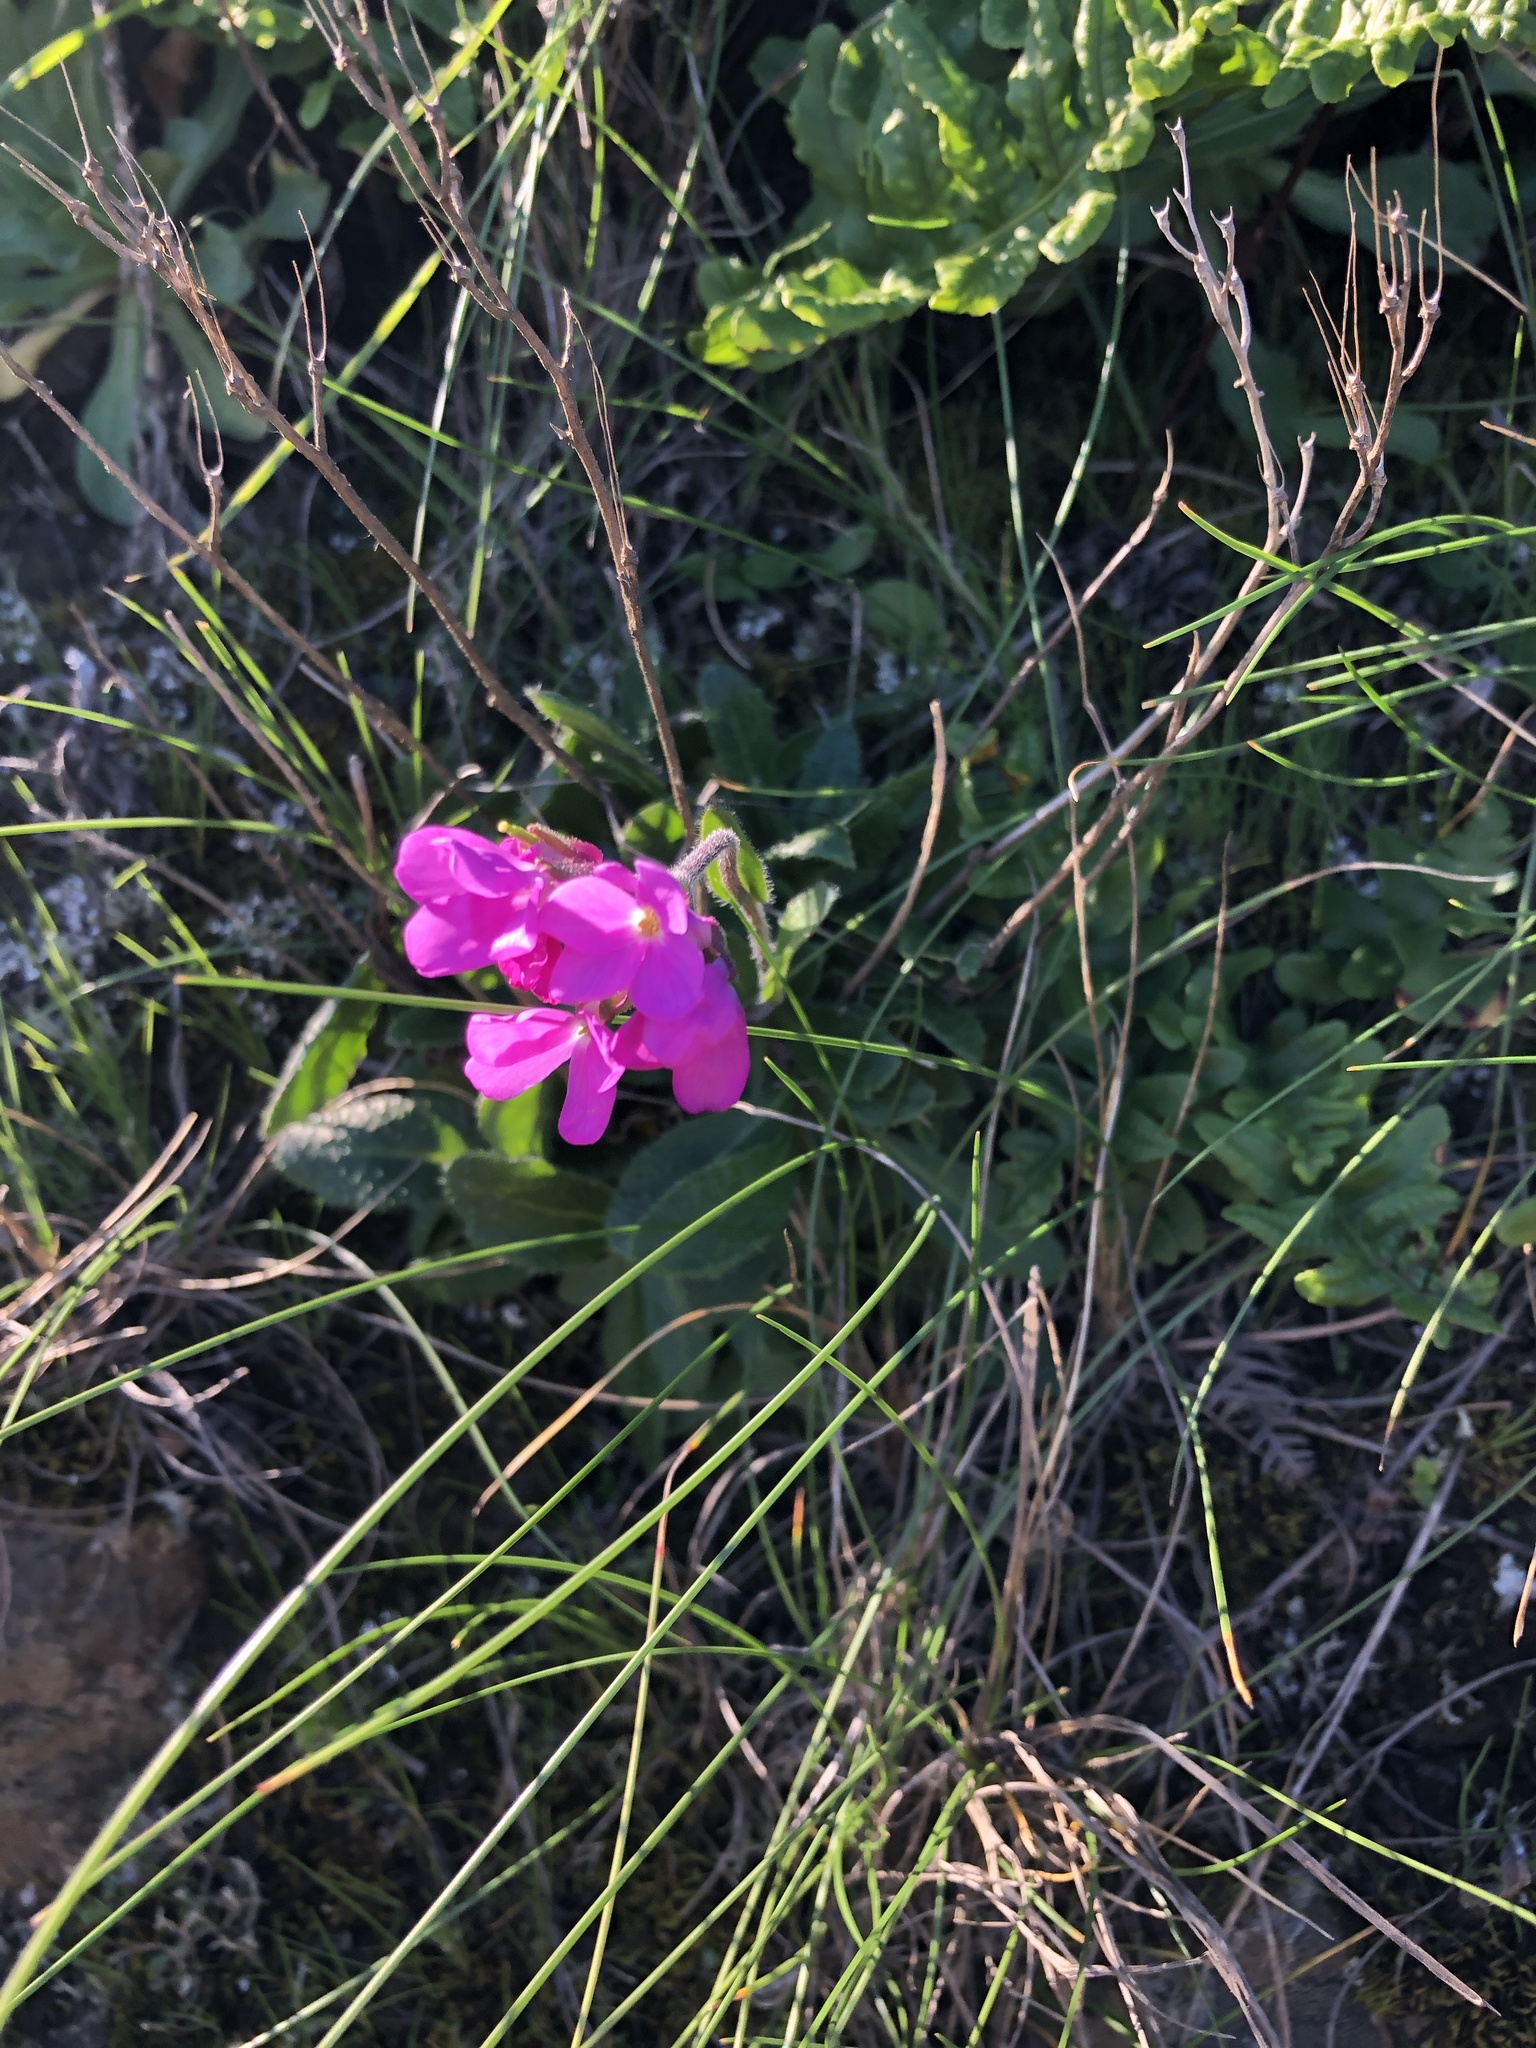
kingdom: Plantae
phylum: Tracheophyta
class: Magnoliopsida
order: Brassicales
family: Brassicaceae
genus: Arabis
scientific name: Arabis blepharophylla
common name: Rose rockcress
